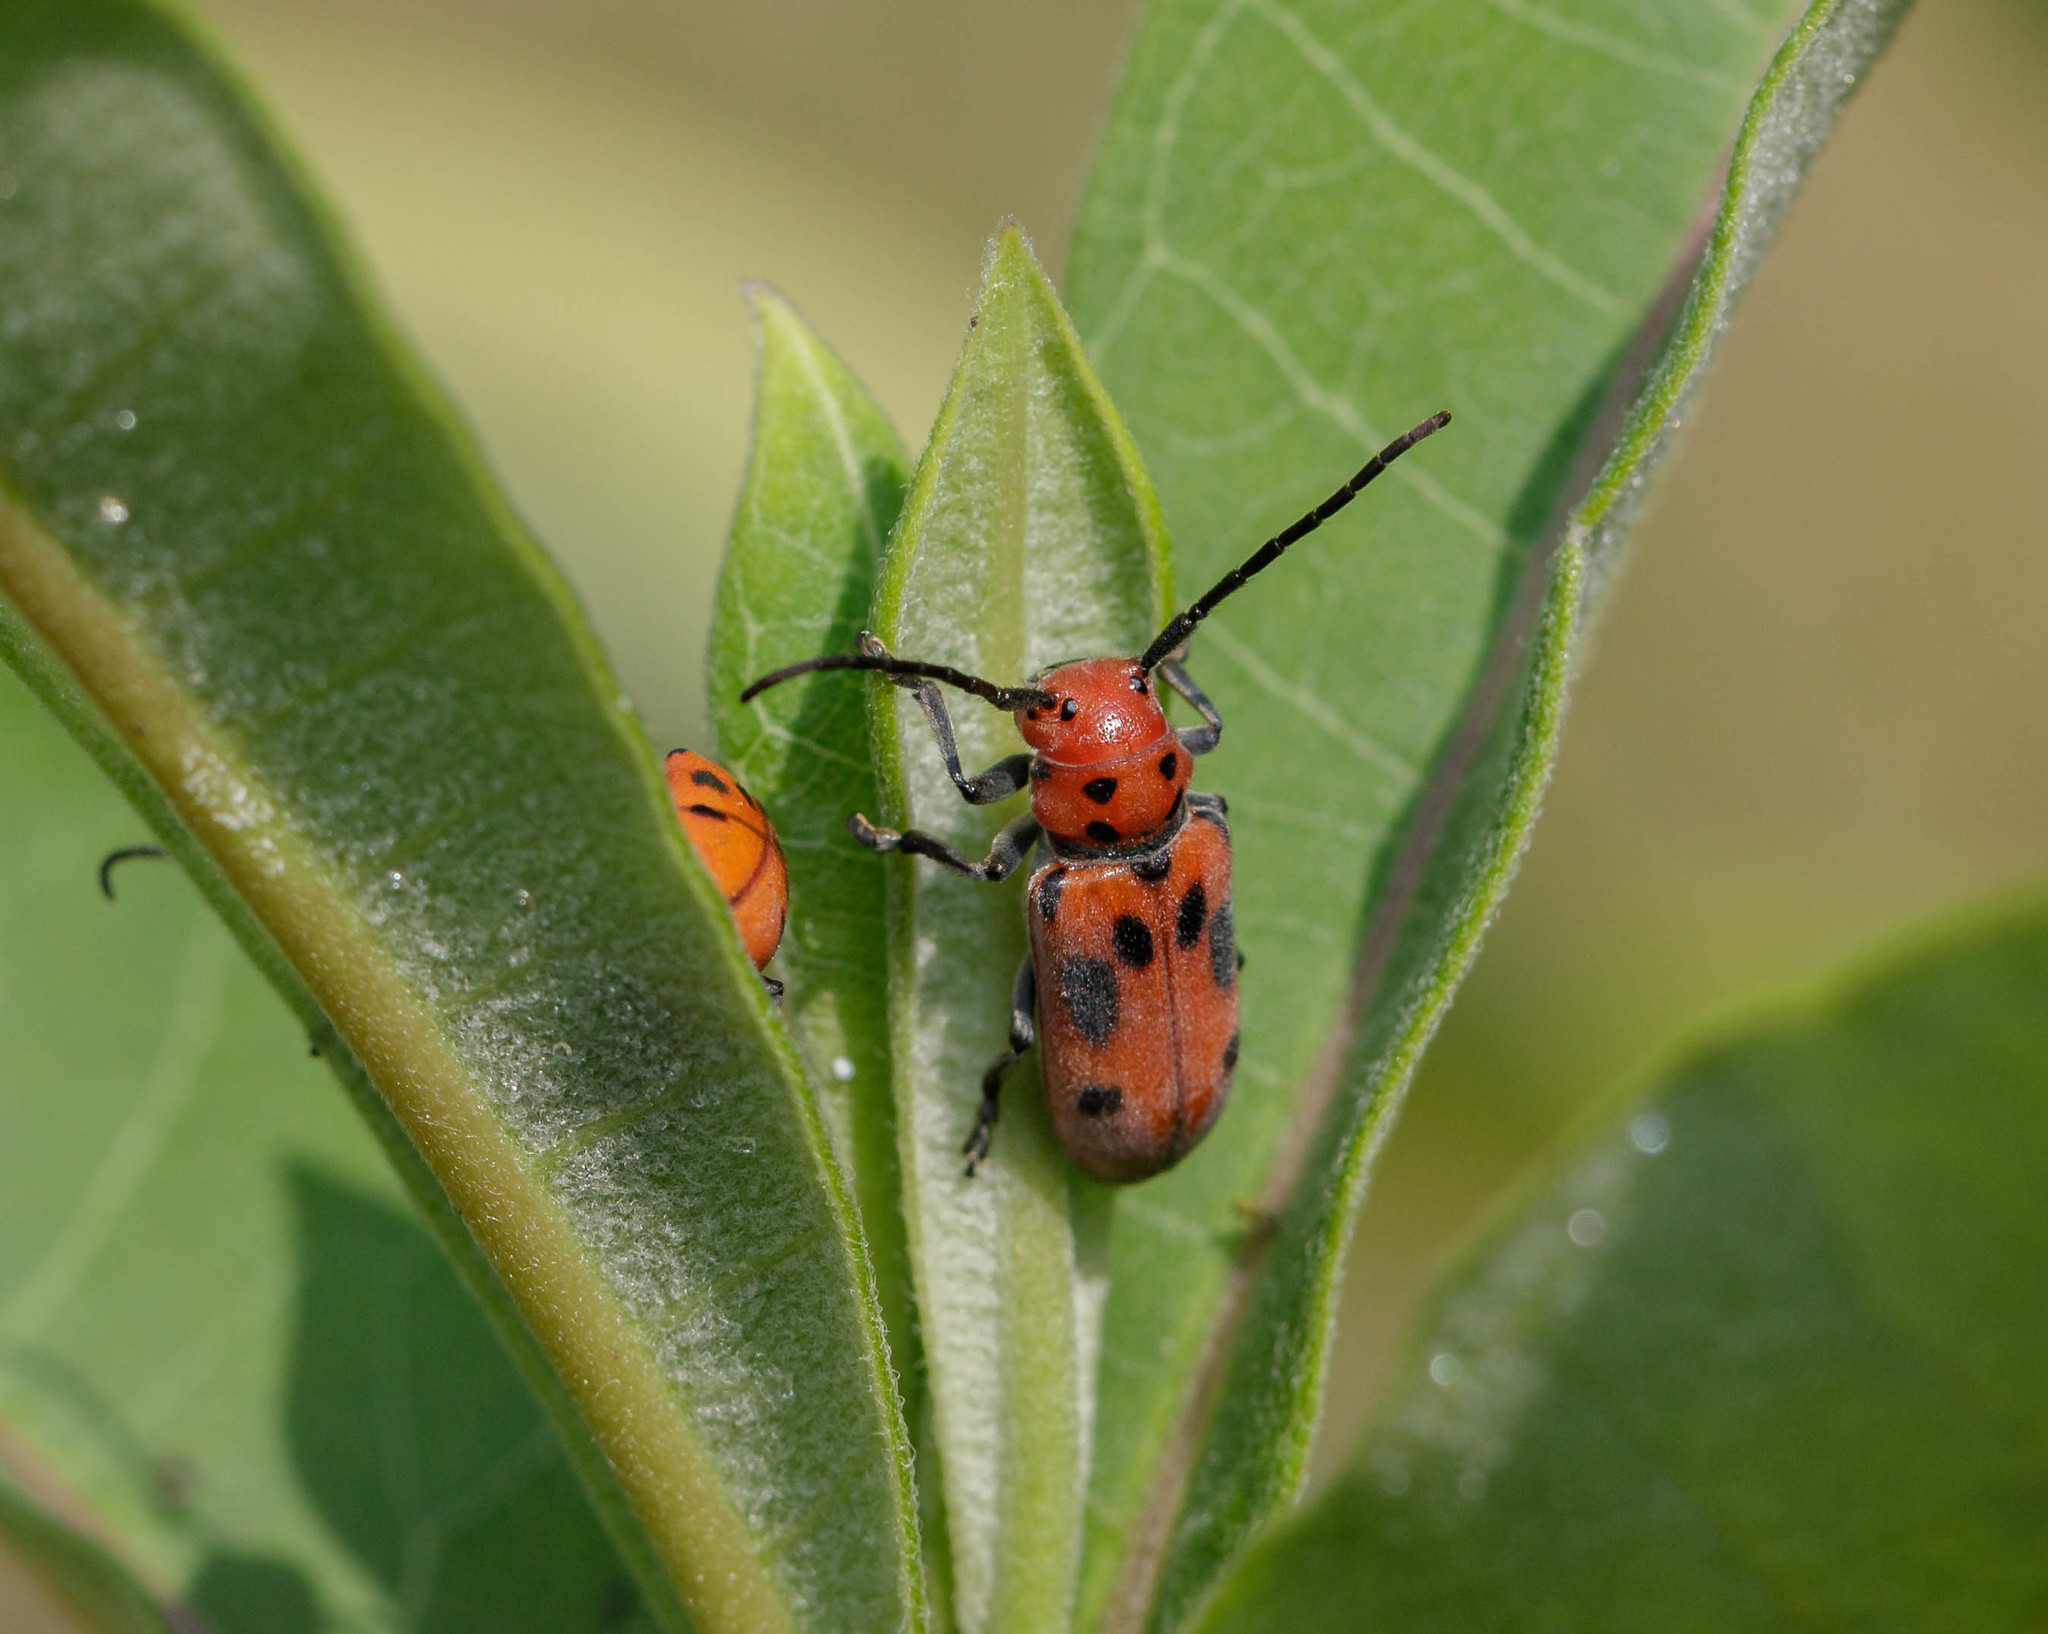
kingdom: Animalia
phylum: Arthropoda
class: Insecta
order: Coleoptera
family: Cerambycidae
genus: Tetraopes
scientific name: Tetraopes tetrophthalmus
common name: Red milkweed beetle
